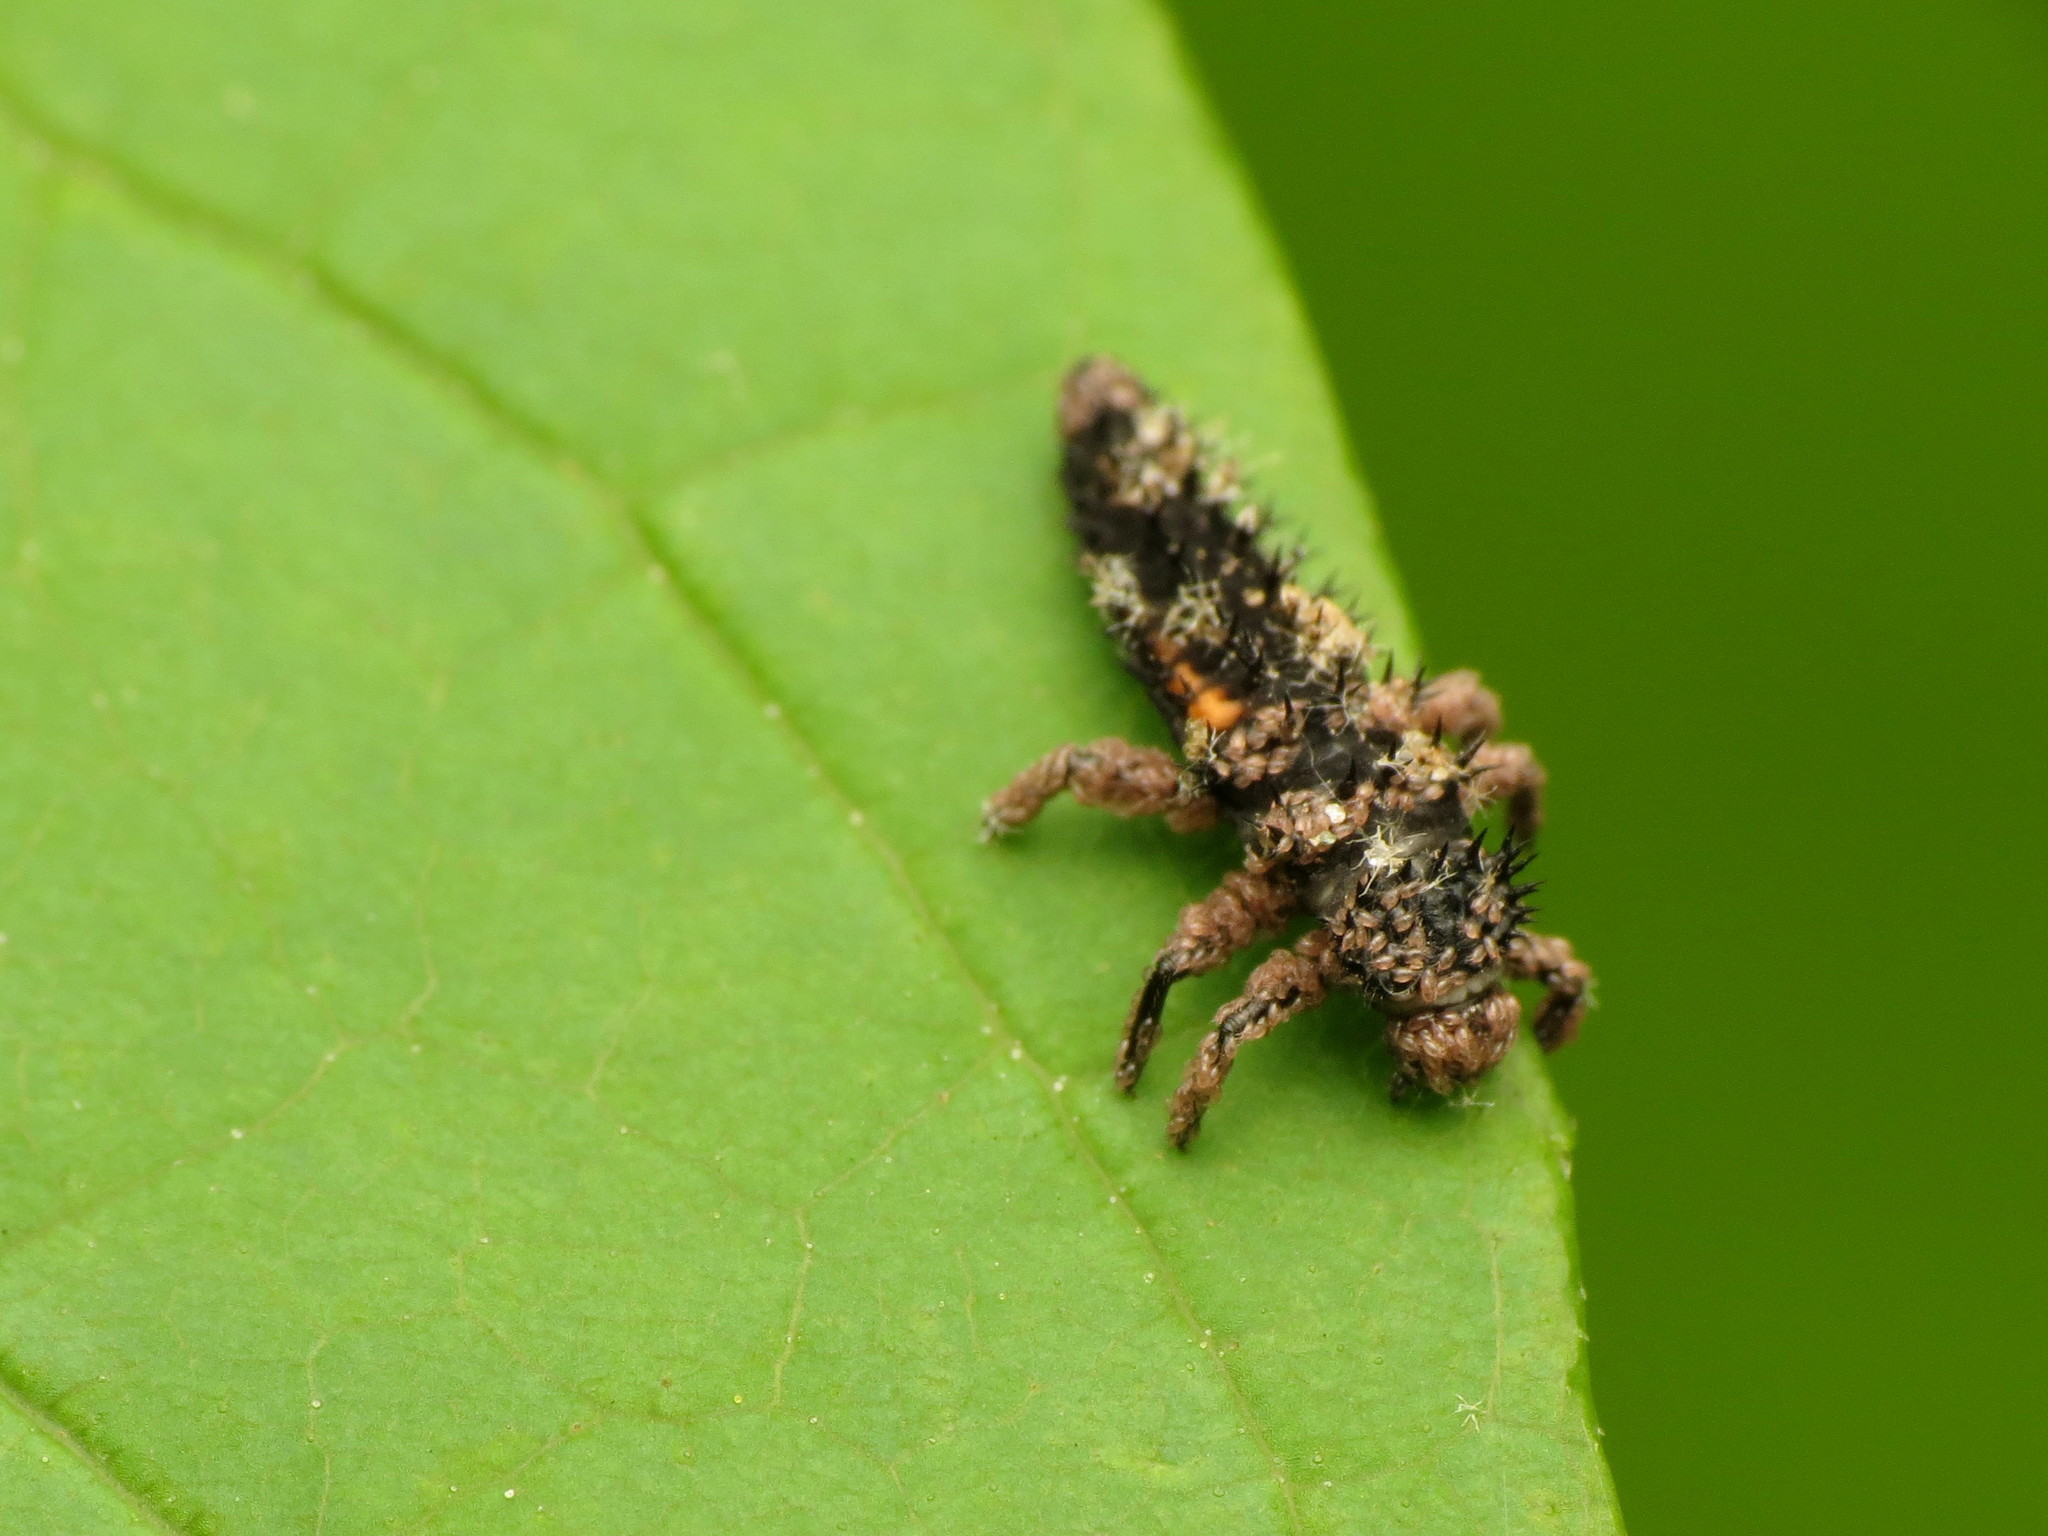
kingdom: Animalia
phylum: Arthropoda
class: Insecta
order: Coleoptera
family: Coccinellidae
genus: Harmonia
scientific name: Harmonia axyridis
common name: Harlequin ladybird
